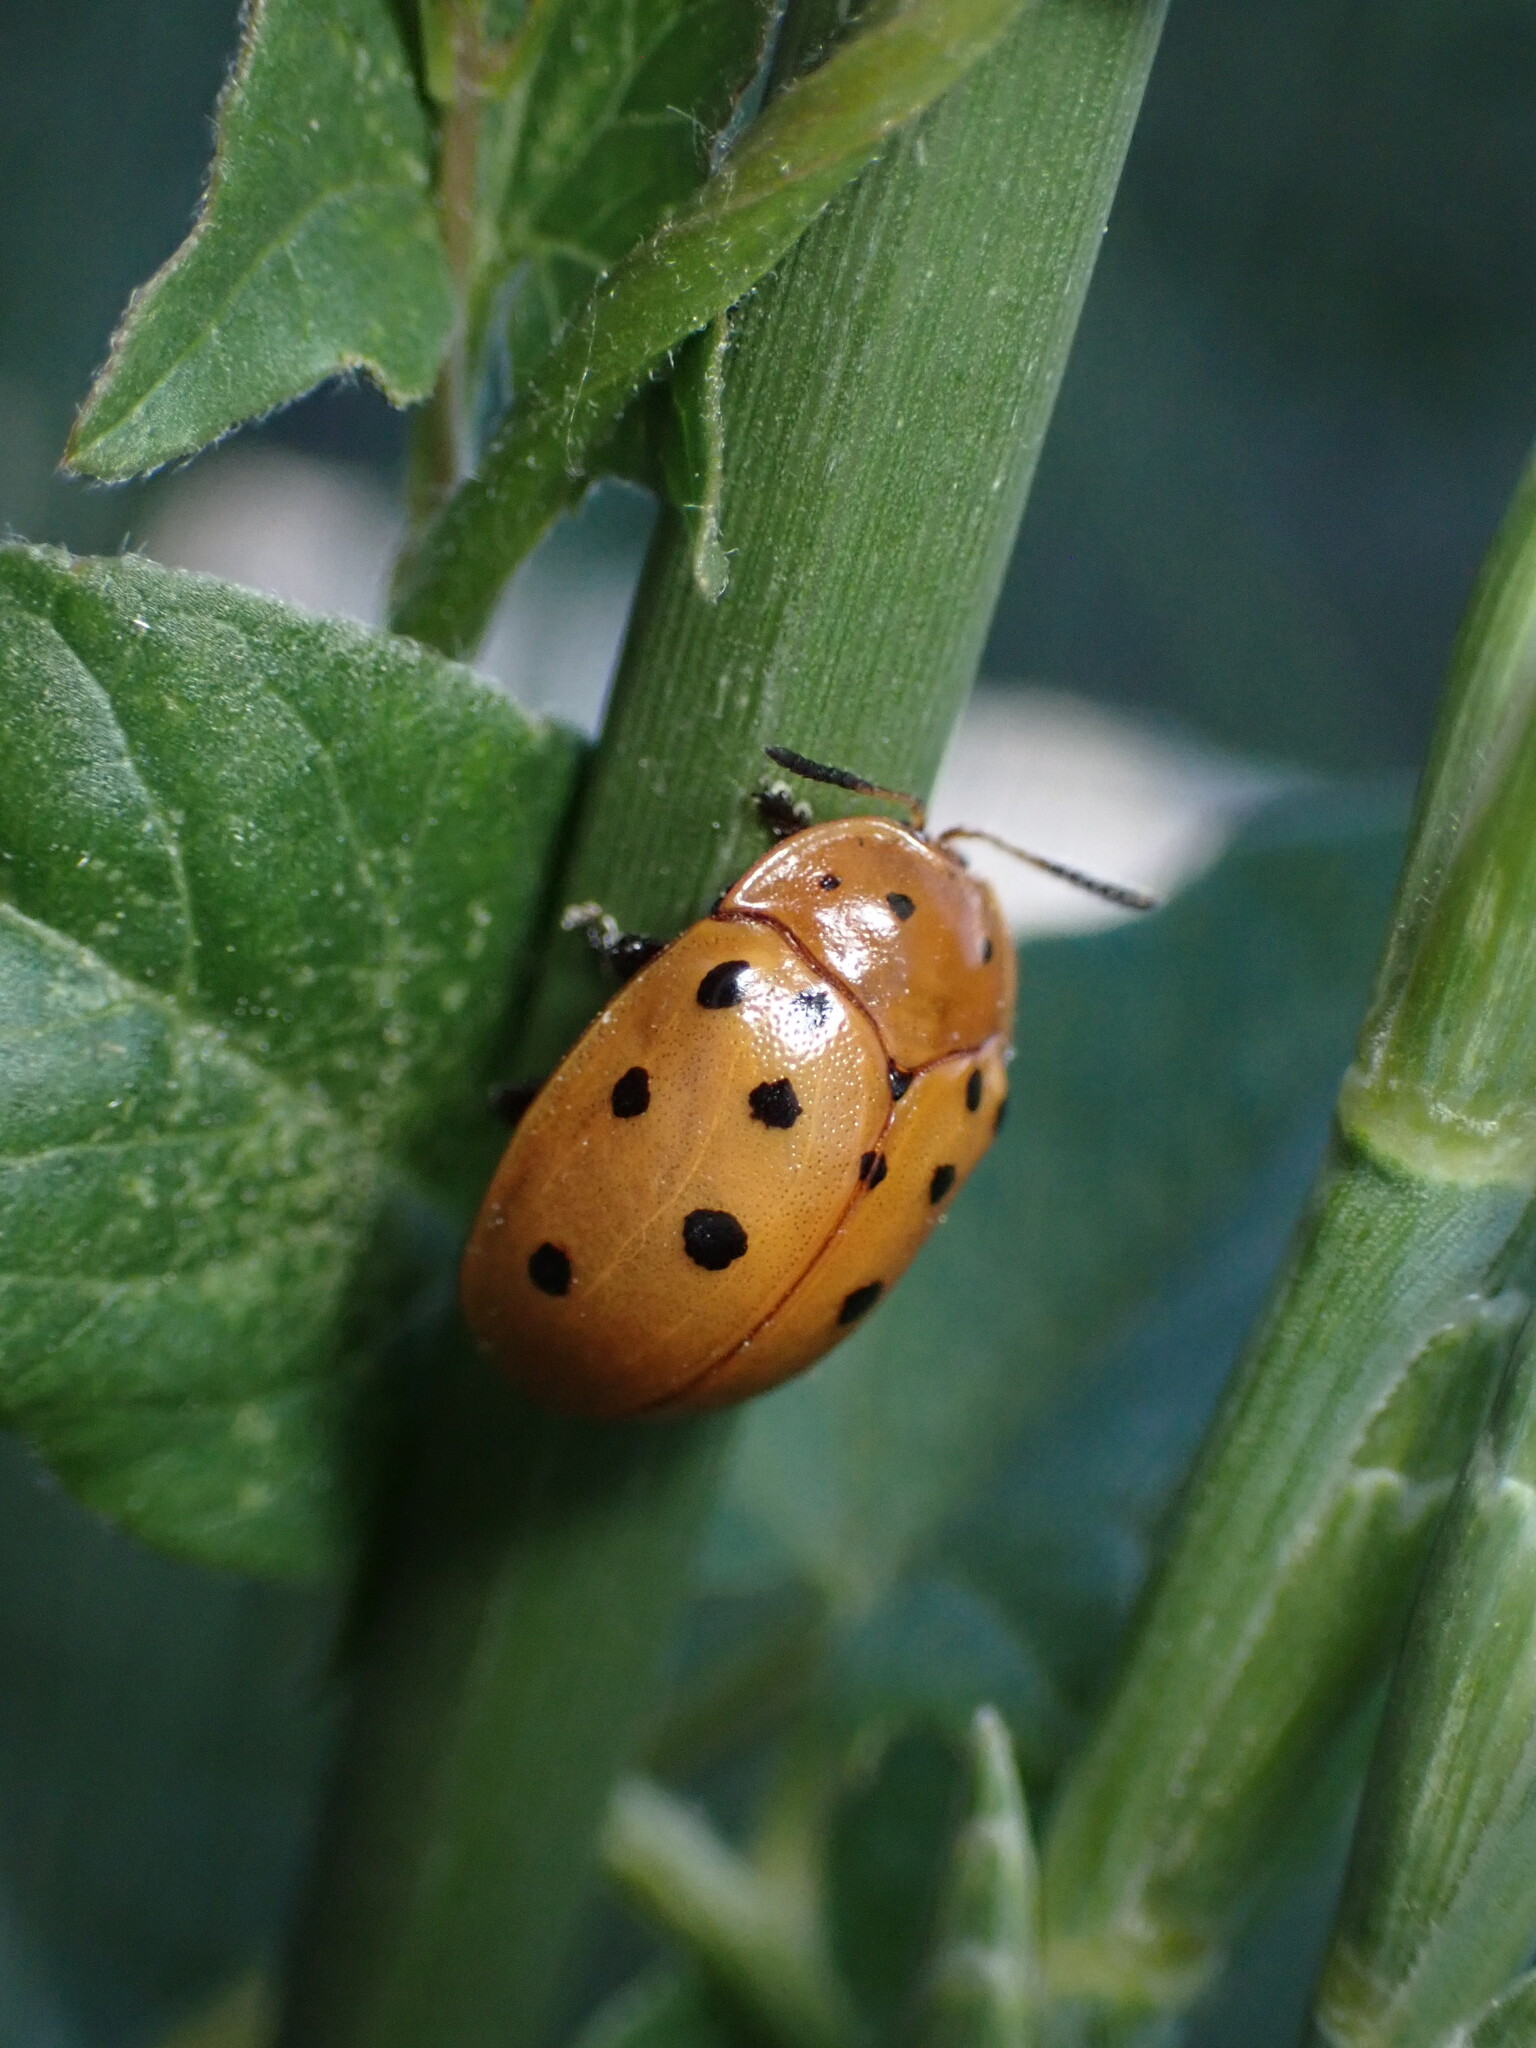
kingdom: Animalia
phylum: Arthropoda
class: Insecta
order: Coleoptera
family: Chrysomelidae
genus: Chelymorpha
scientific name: Chelymorpha cassidea
